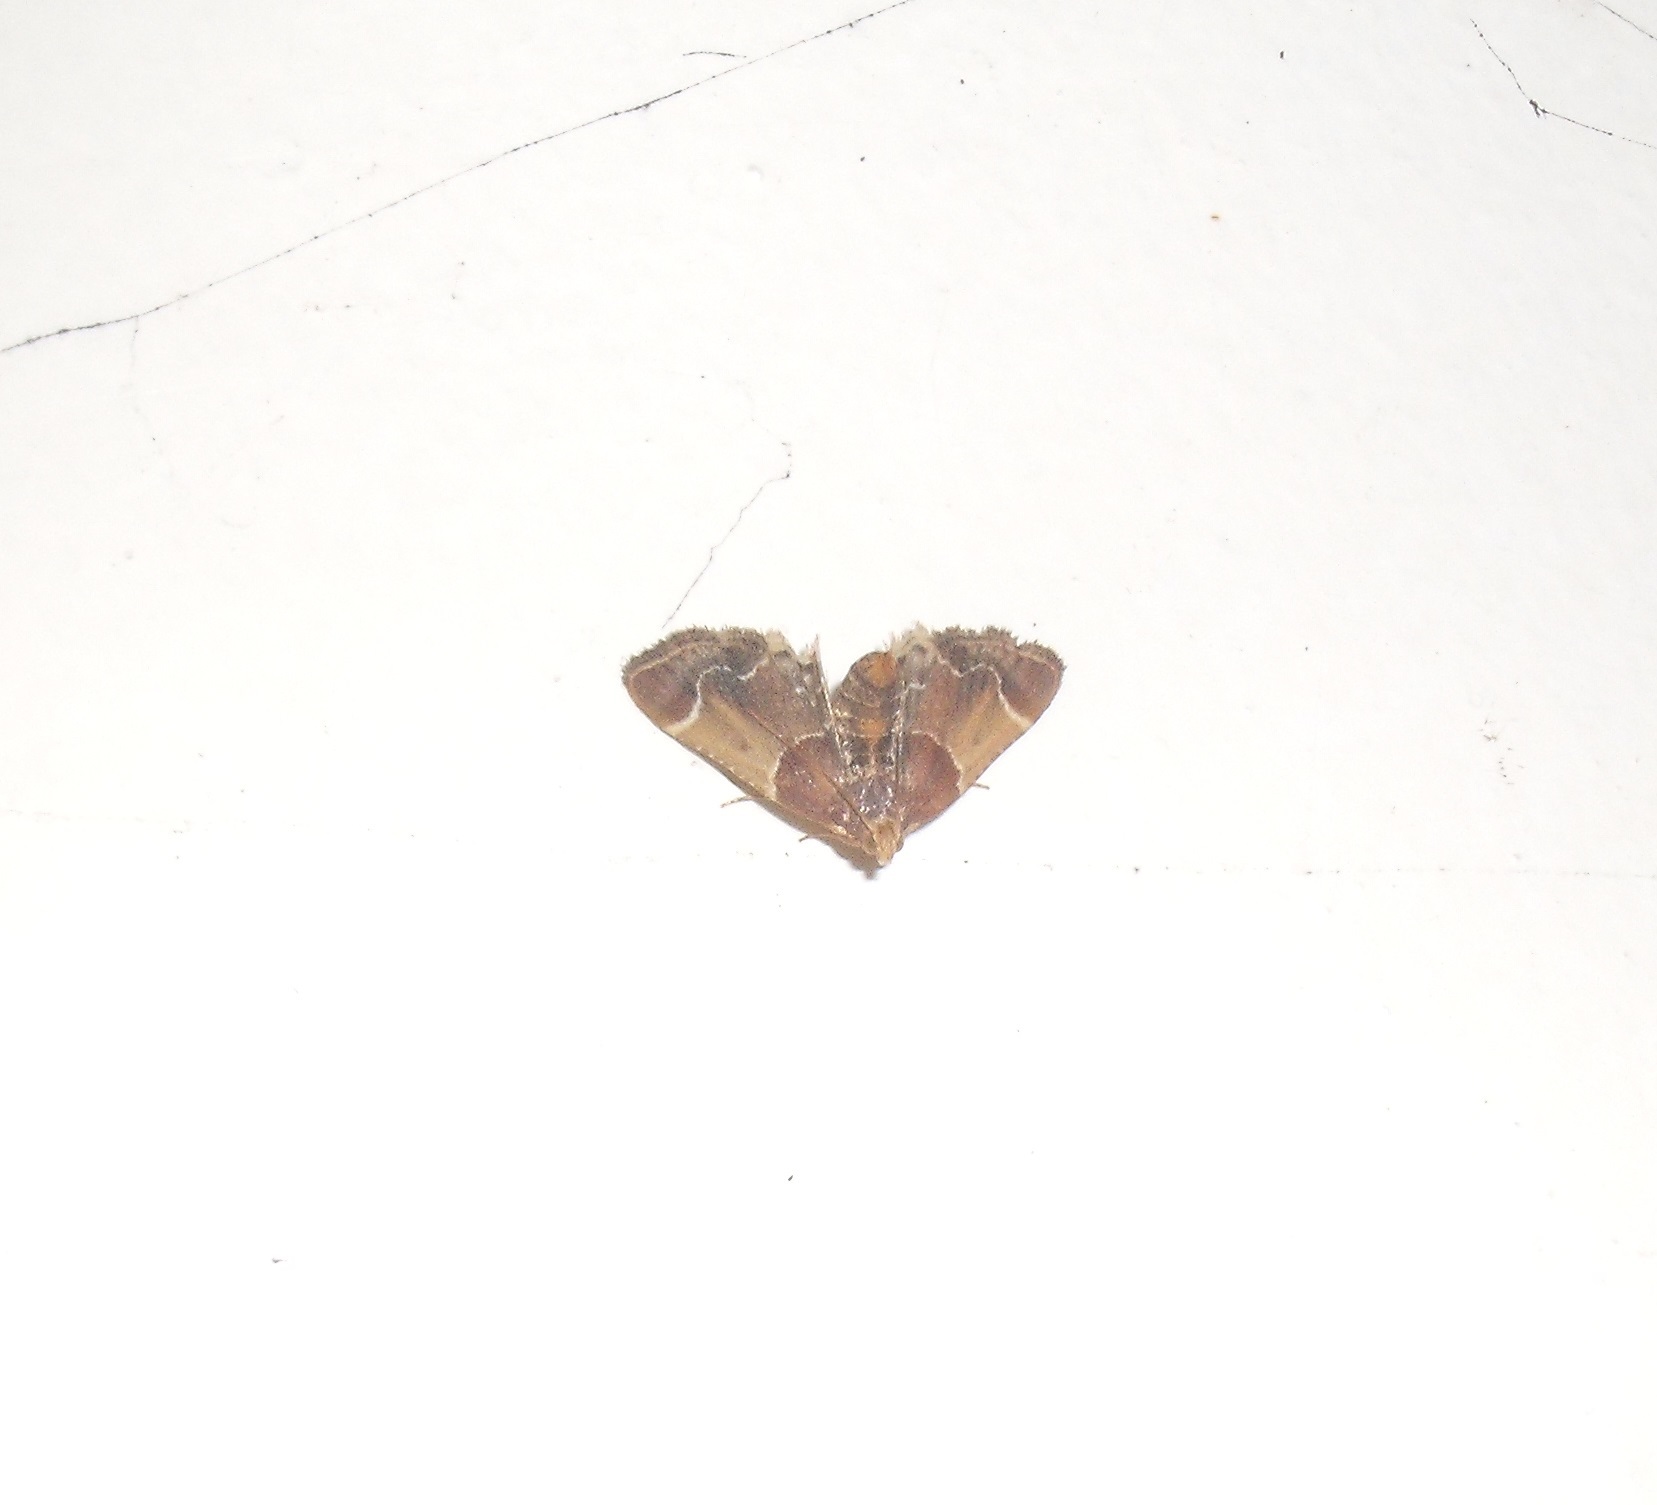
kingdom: Animalia
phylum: Arthropoda
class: Insecta
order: Lepidoptera
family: Pyralidae
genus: Pyralis
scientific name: Pyralis farinalis
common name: Meal moth
